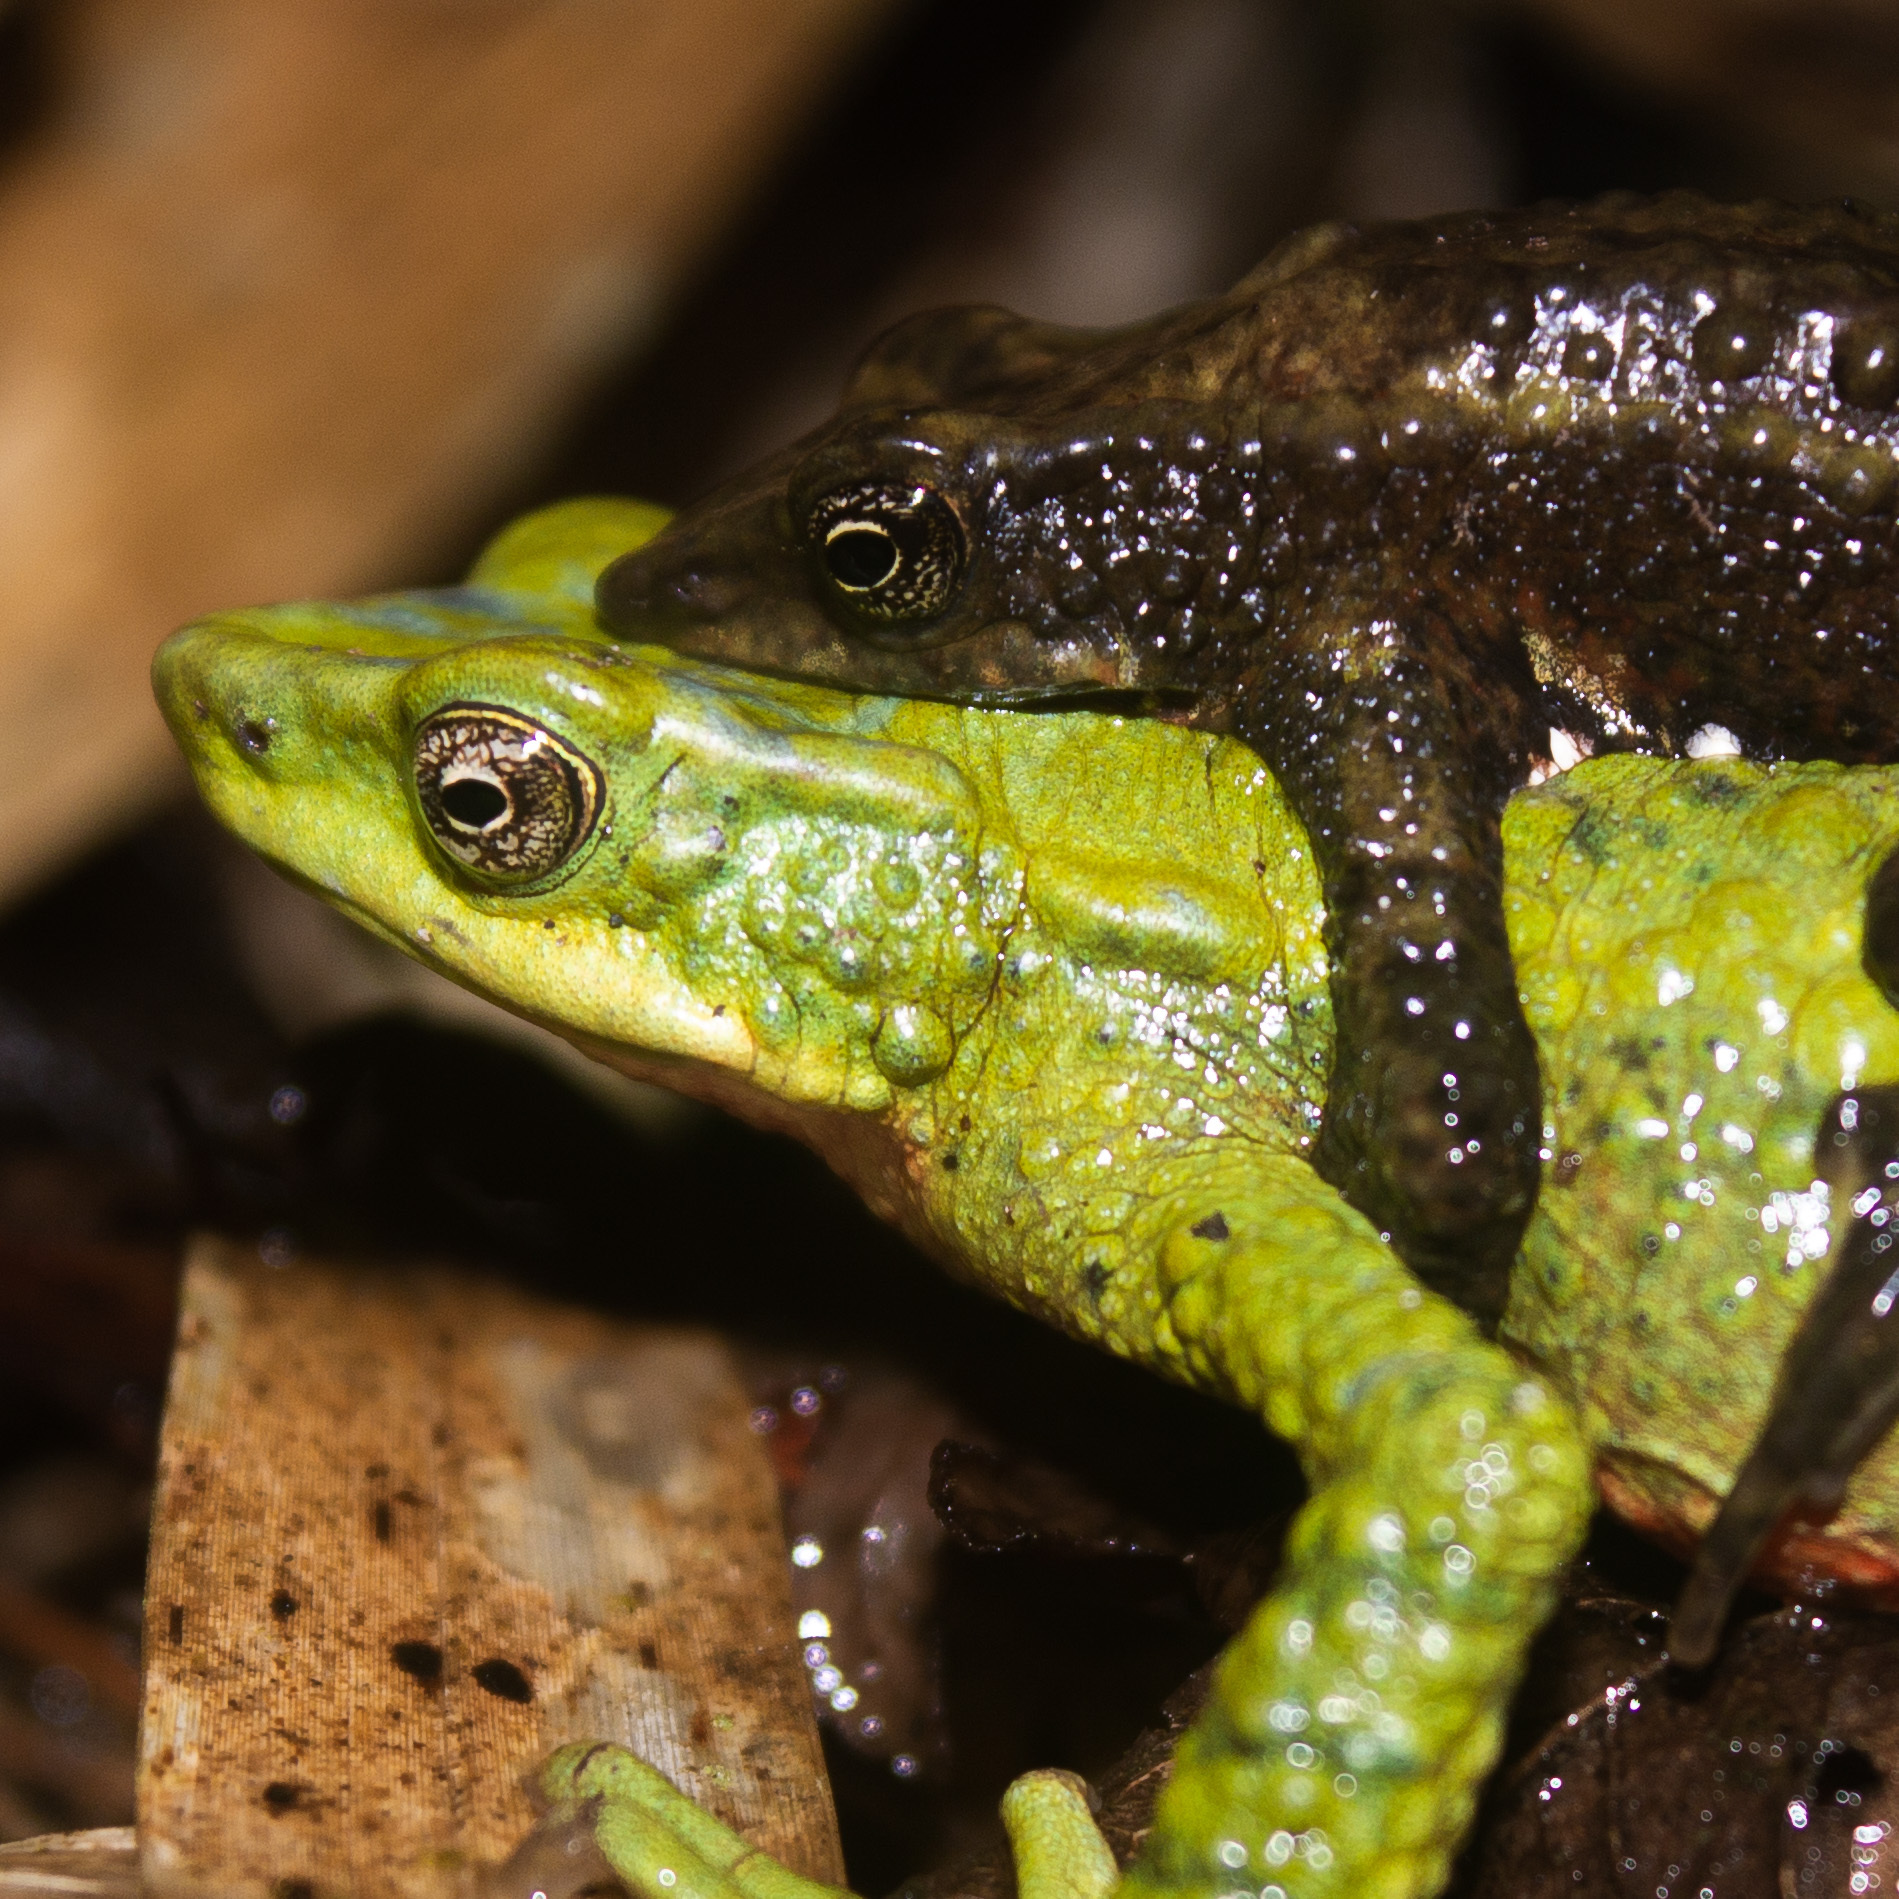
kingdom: Animalia
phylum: Chordata
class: Amphibia
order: Anura
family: Bufonidae
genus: Atelopus
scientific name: Atelopus laetissimus
